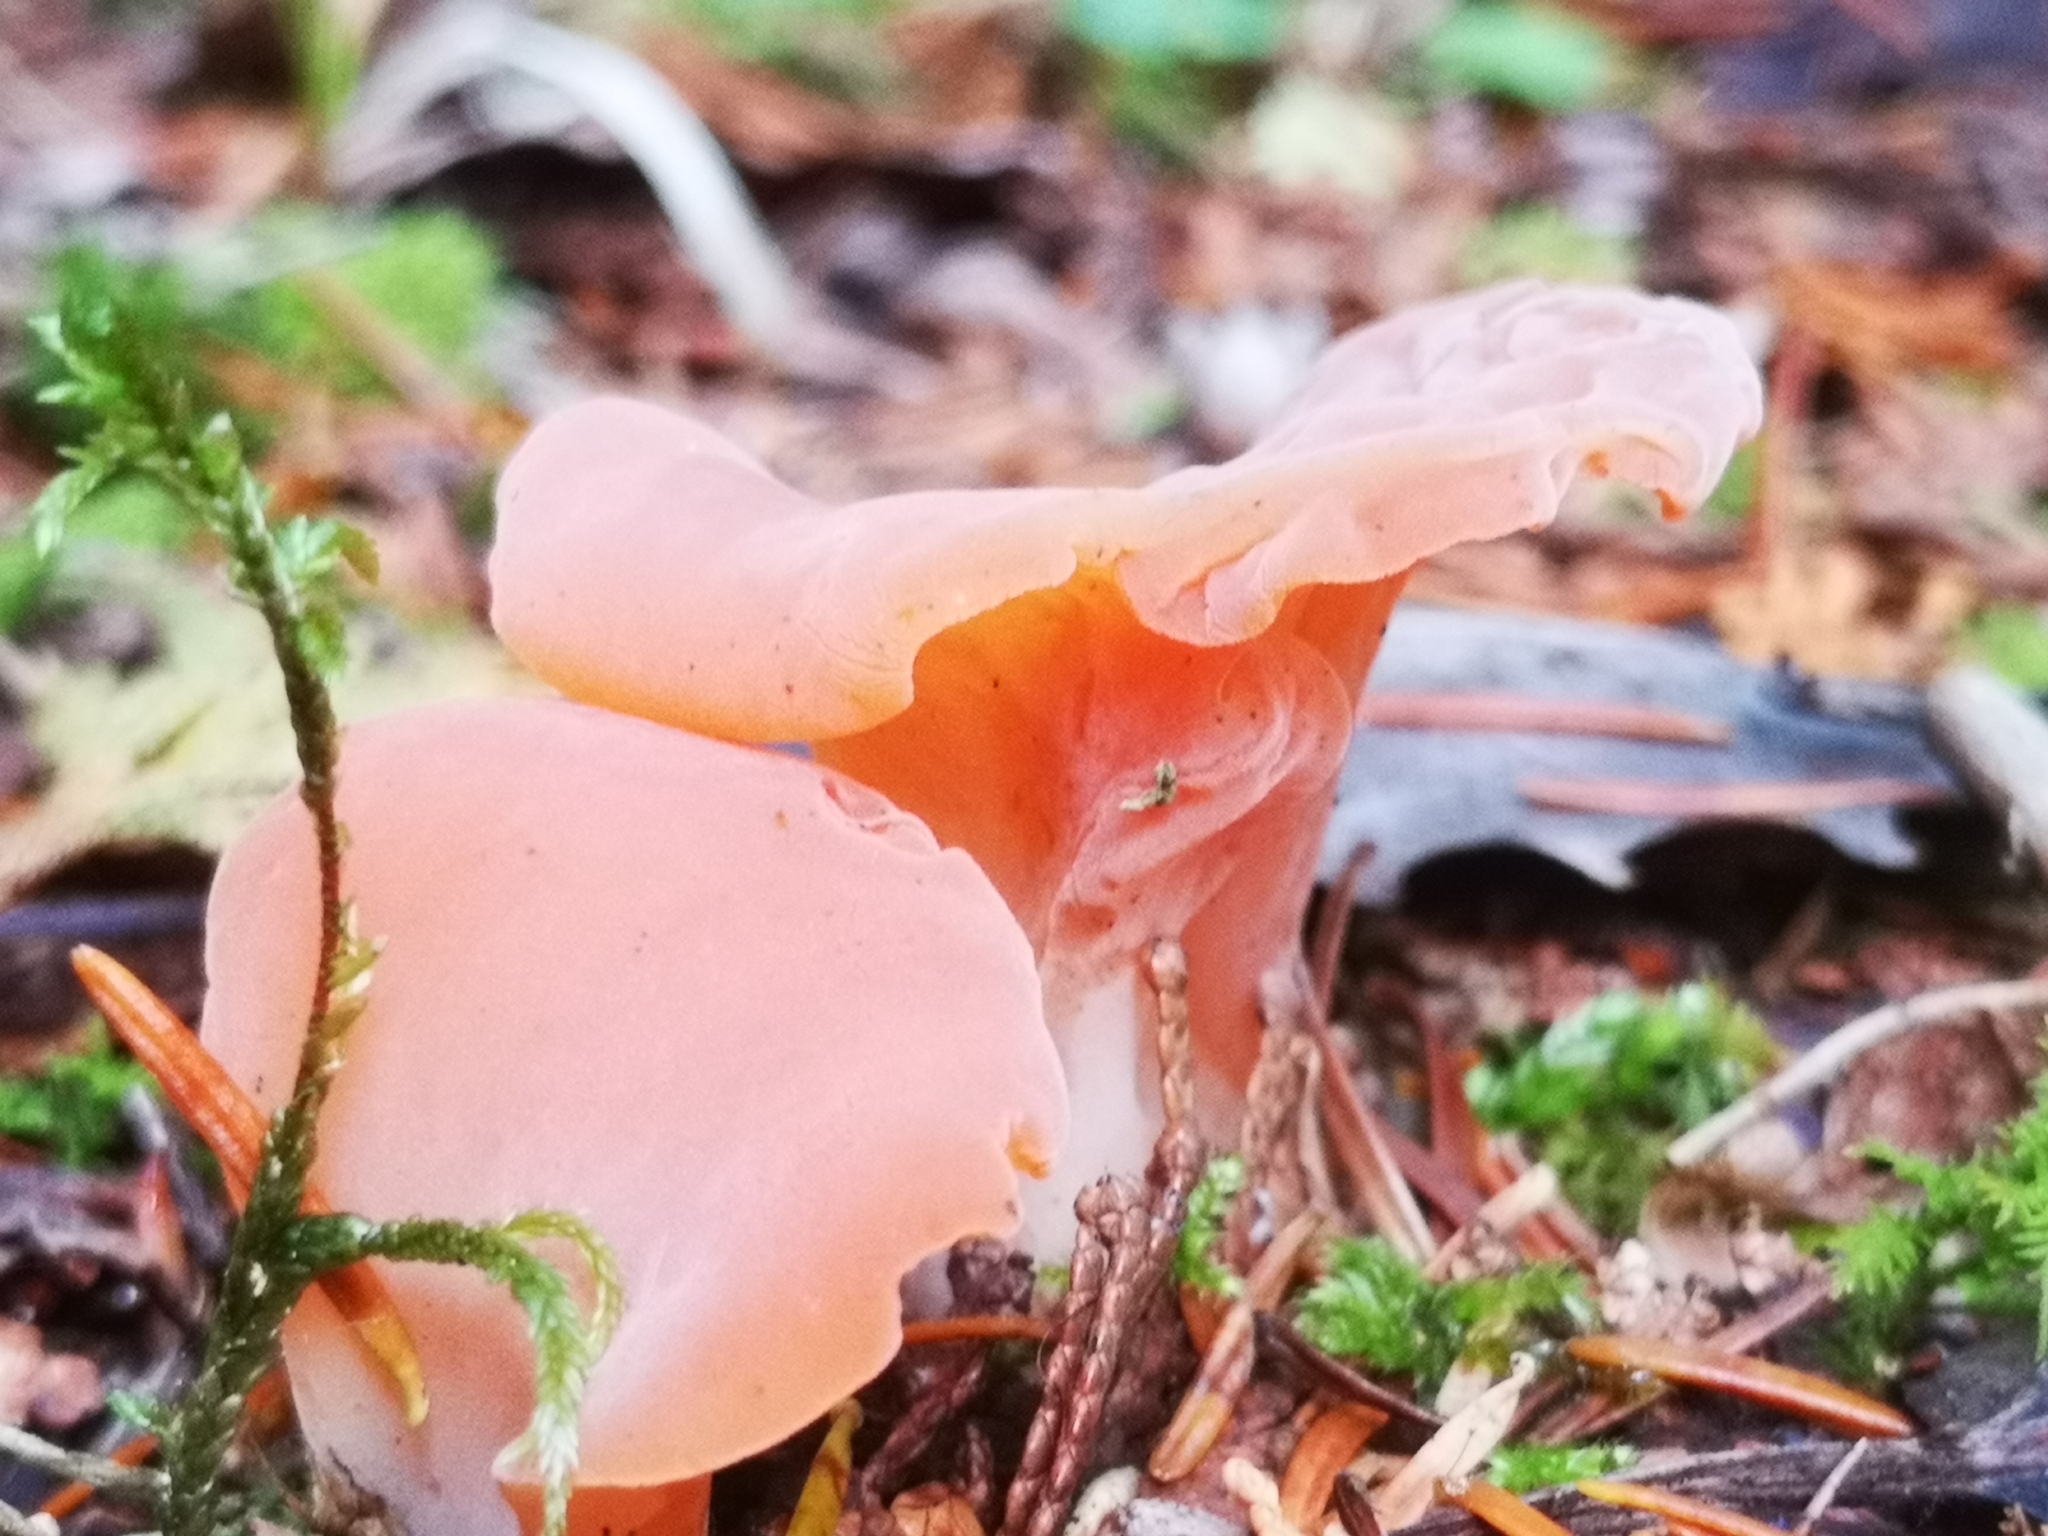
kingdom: Fungi
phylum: Basidiomycota
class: Agaricomycetes
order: Auriculariales
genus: Guepinia
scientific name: Guepinia helvelloides
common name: Salmon salad
